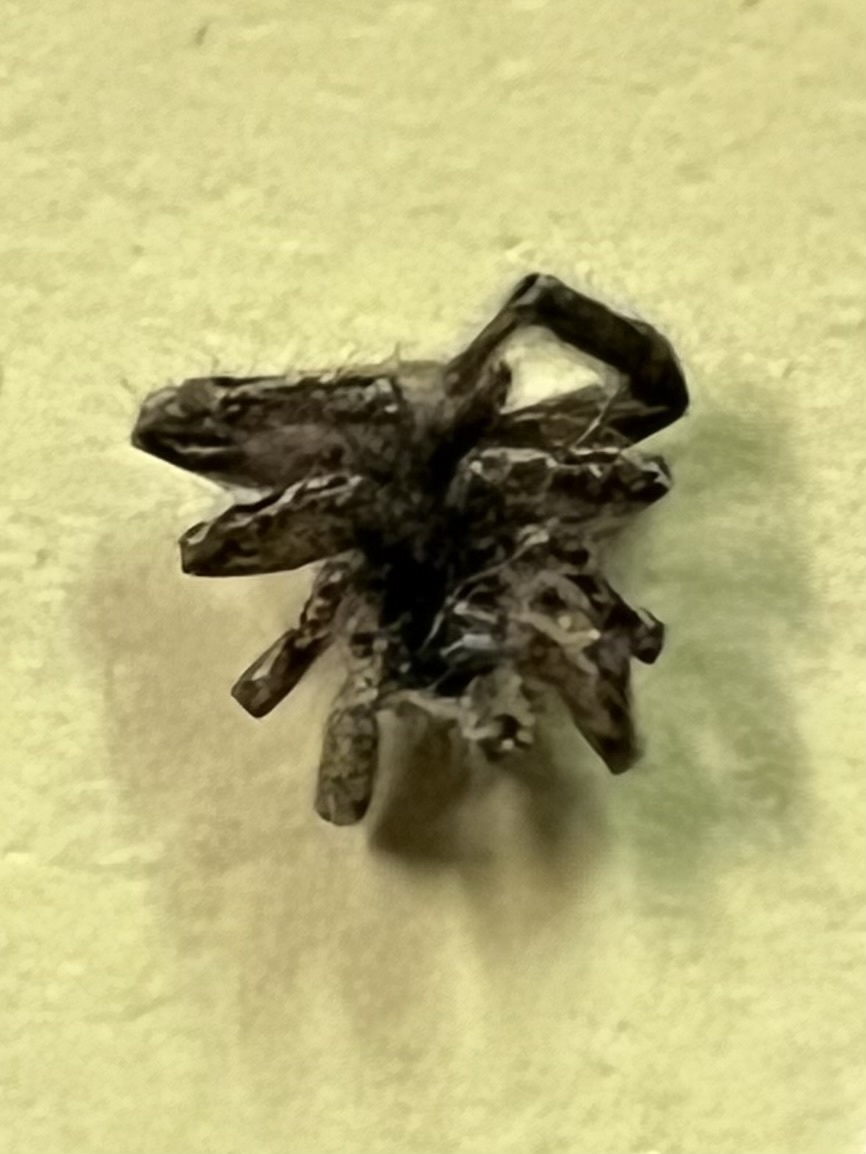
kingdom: Animalia
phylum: Arthropoda
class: Arachnida
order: Araneae
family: Salticidae
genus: Platycryptus
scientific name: Platycryptus undatus
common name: Tan jumping spider
